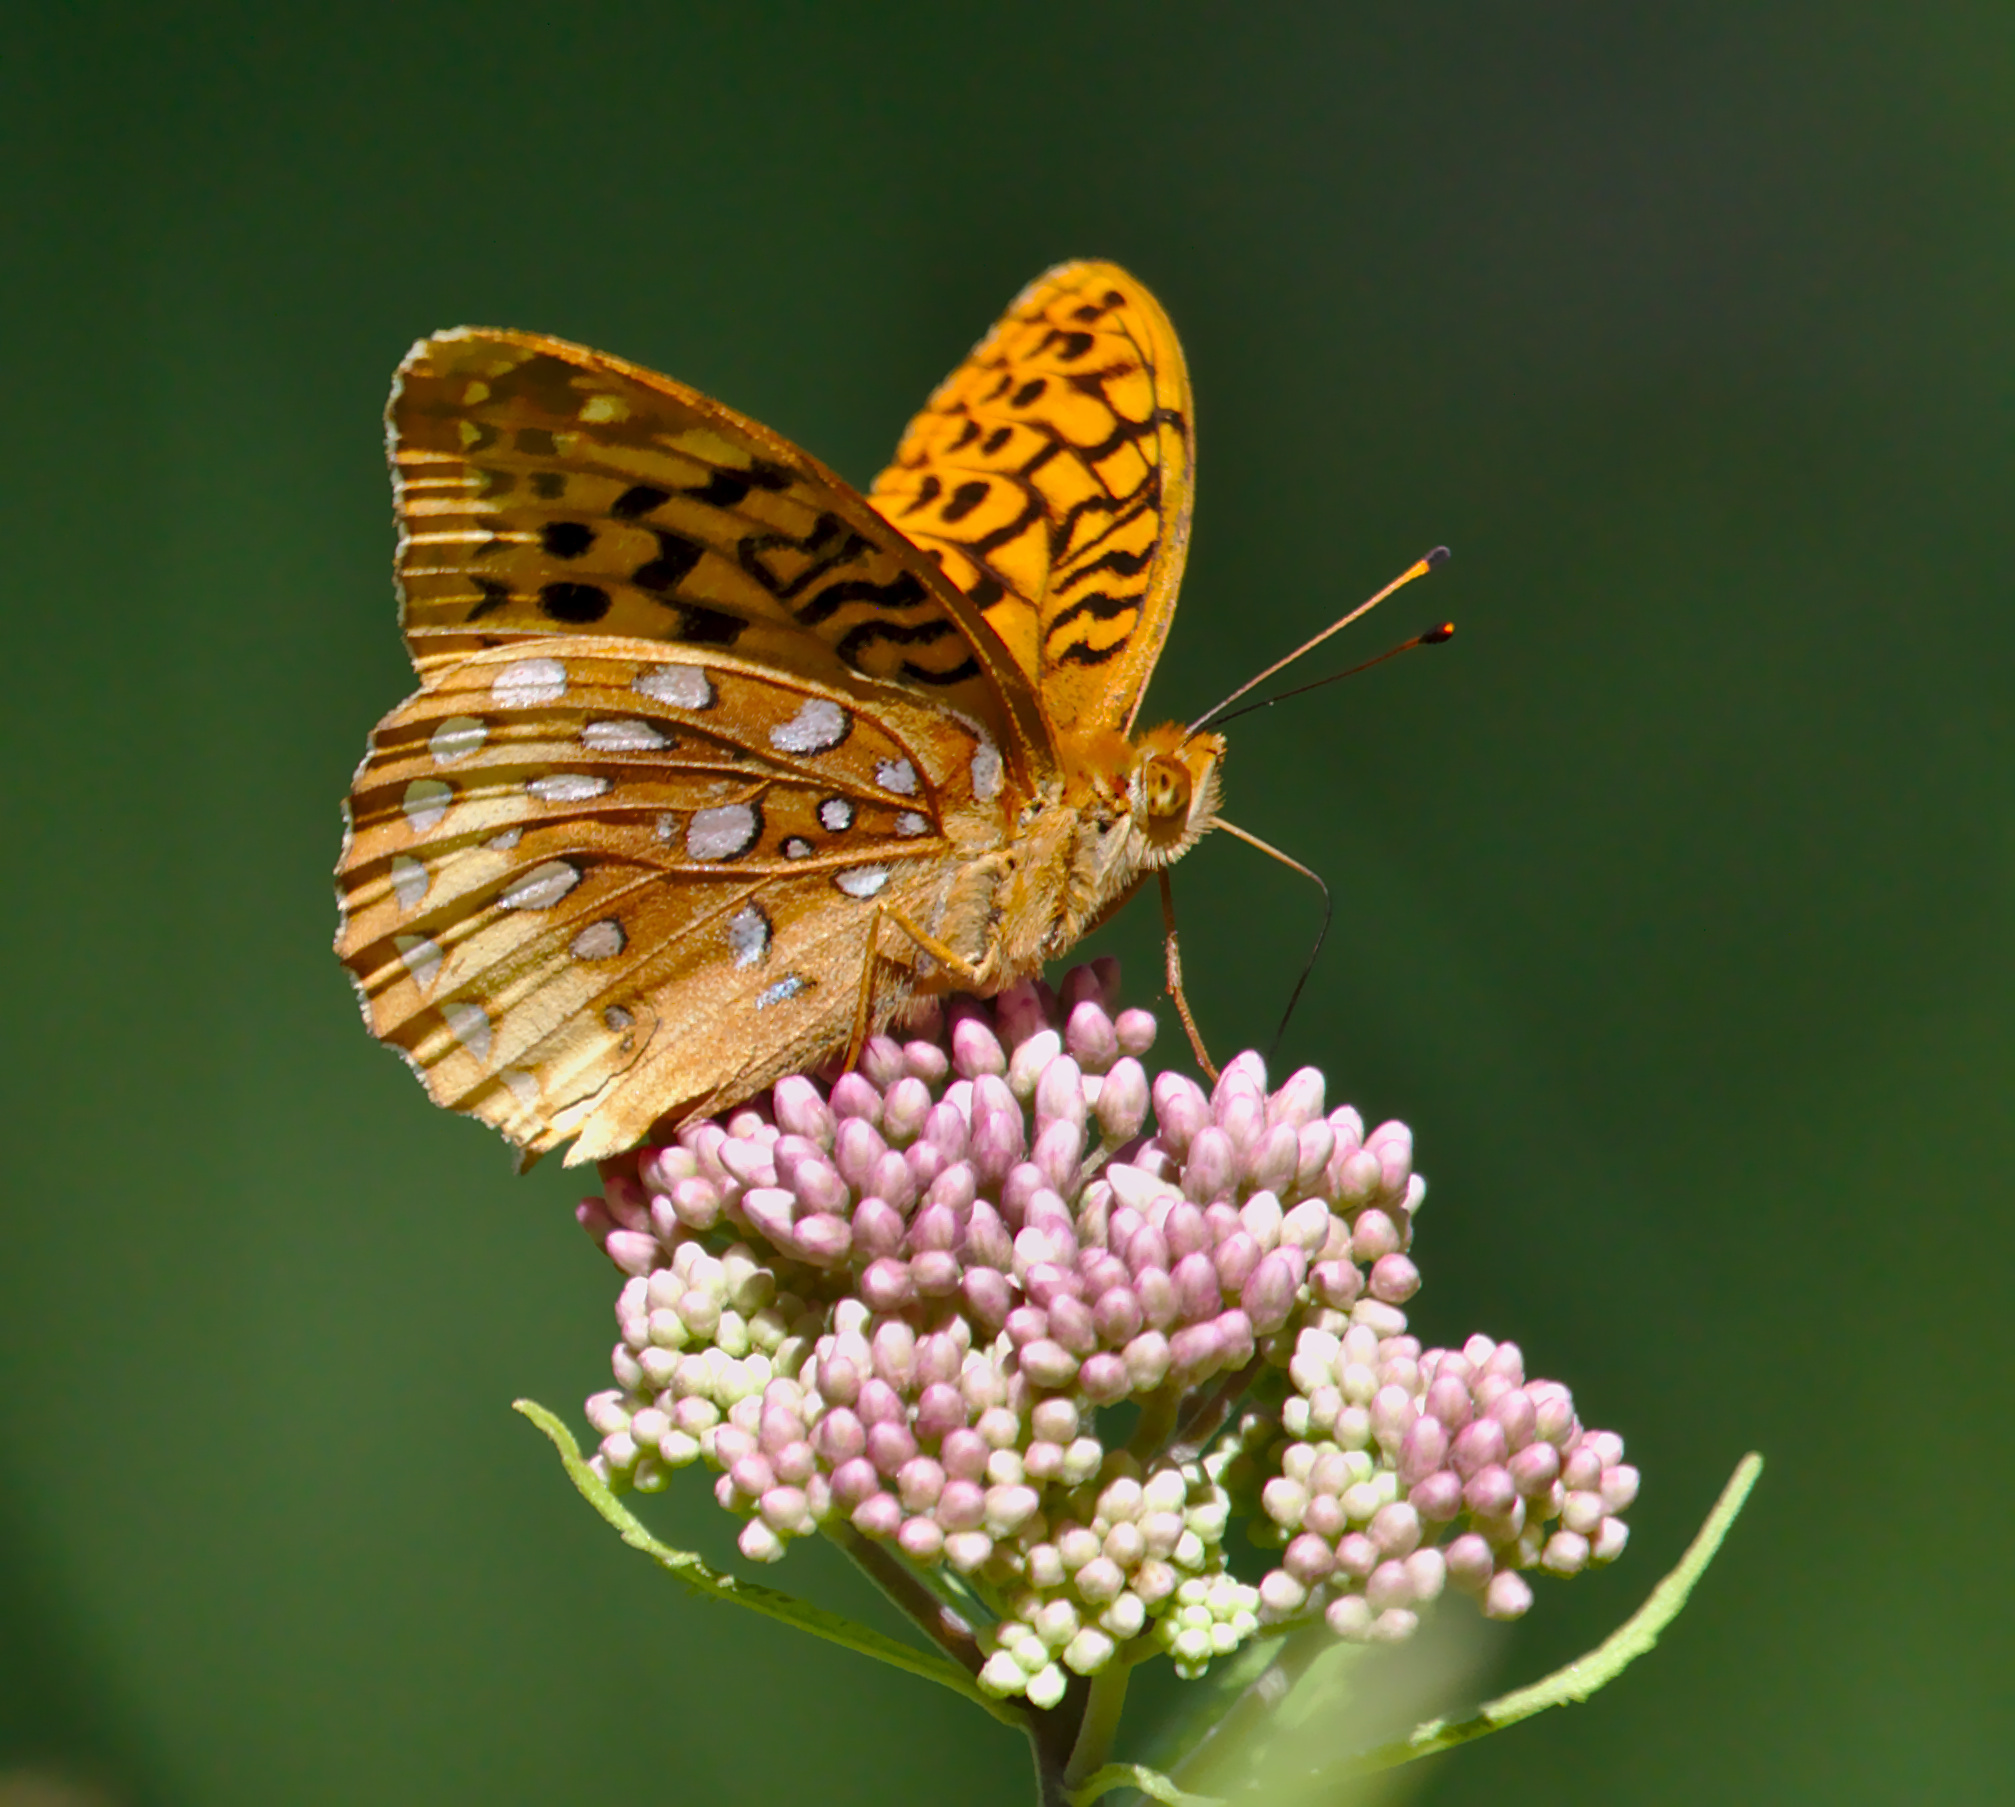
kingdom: Animalia
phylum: Arthropoda
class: Insecta
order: Lepidoptera
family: Nymphalidae
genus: Speyeria
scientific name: Speyeria cybele
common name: Great spangled fritillary
